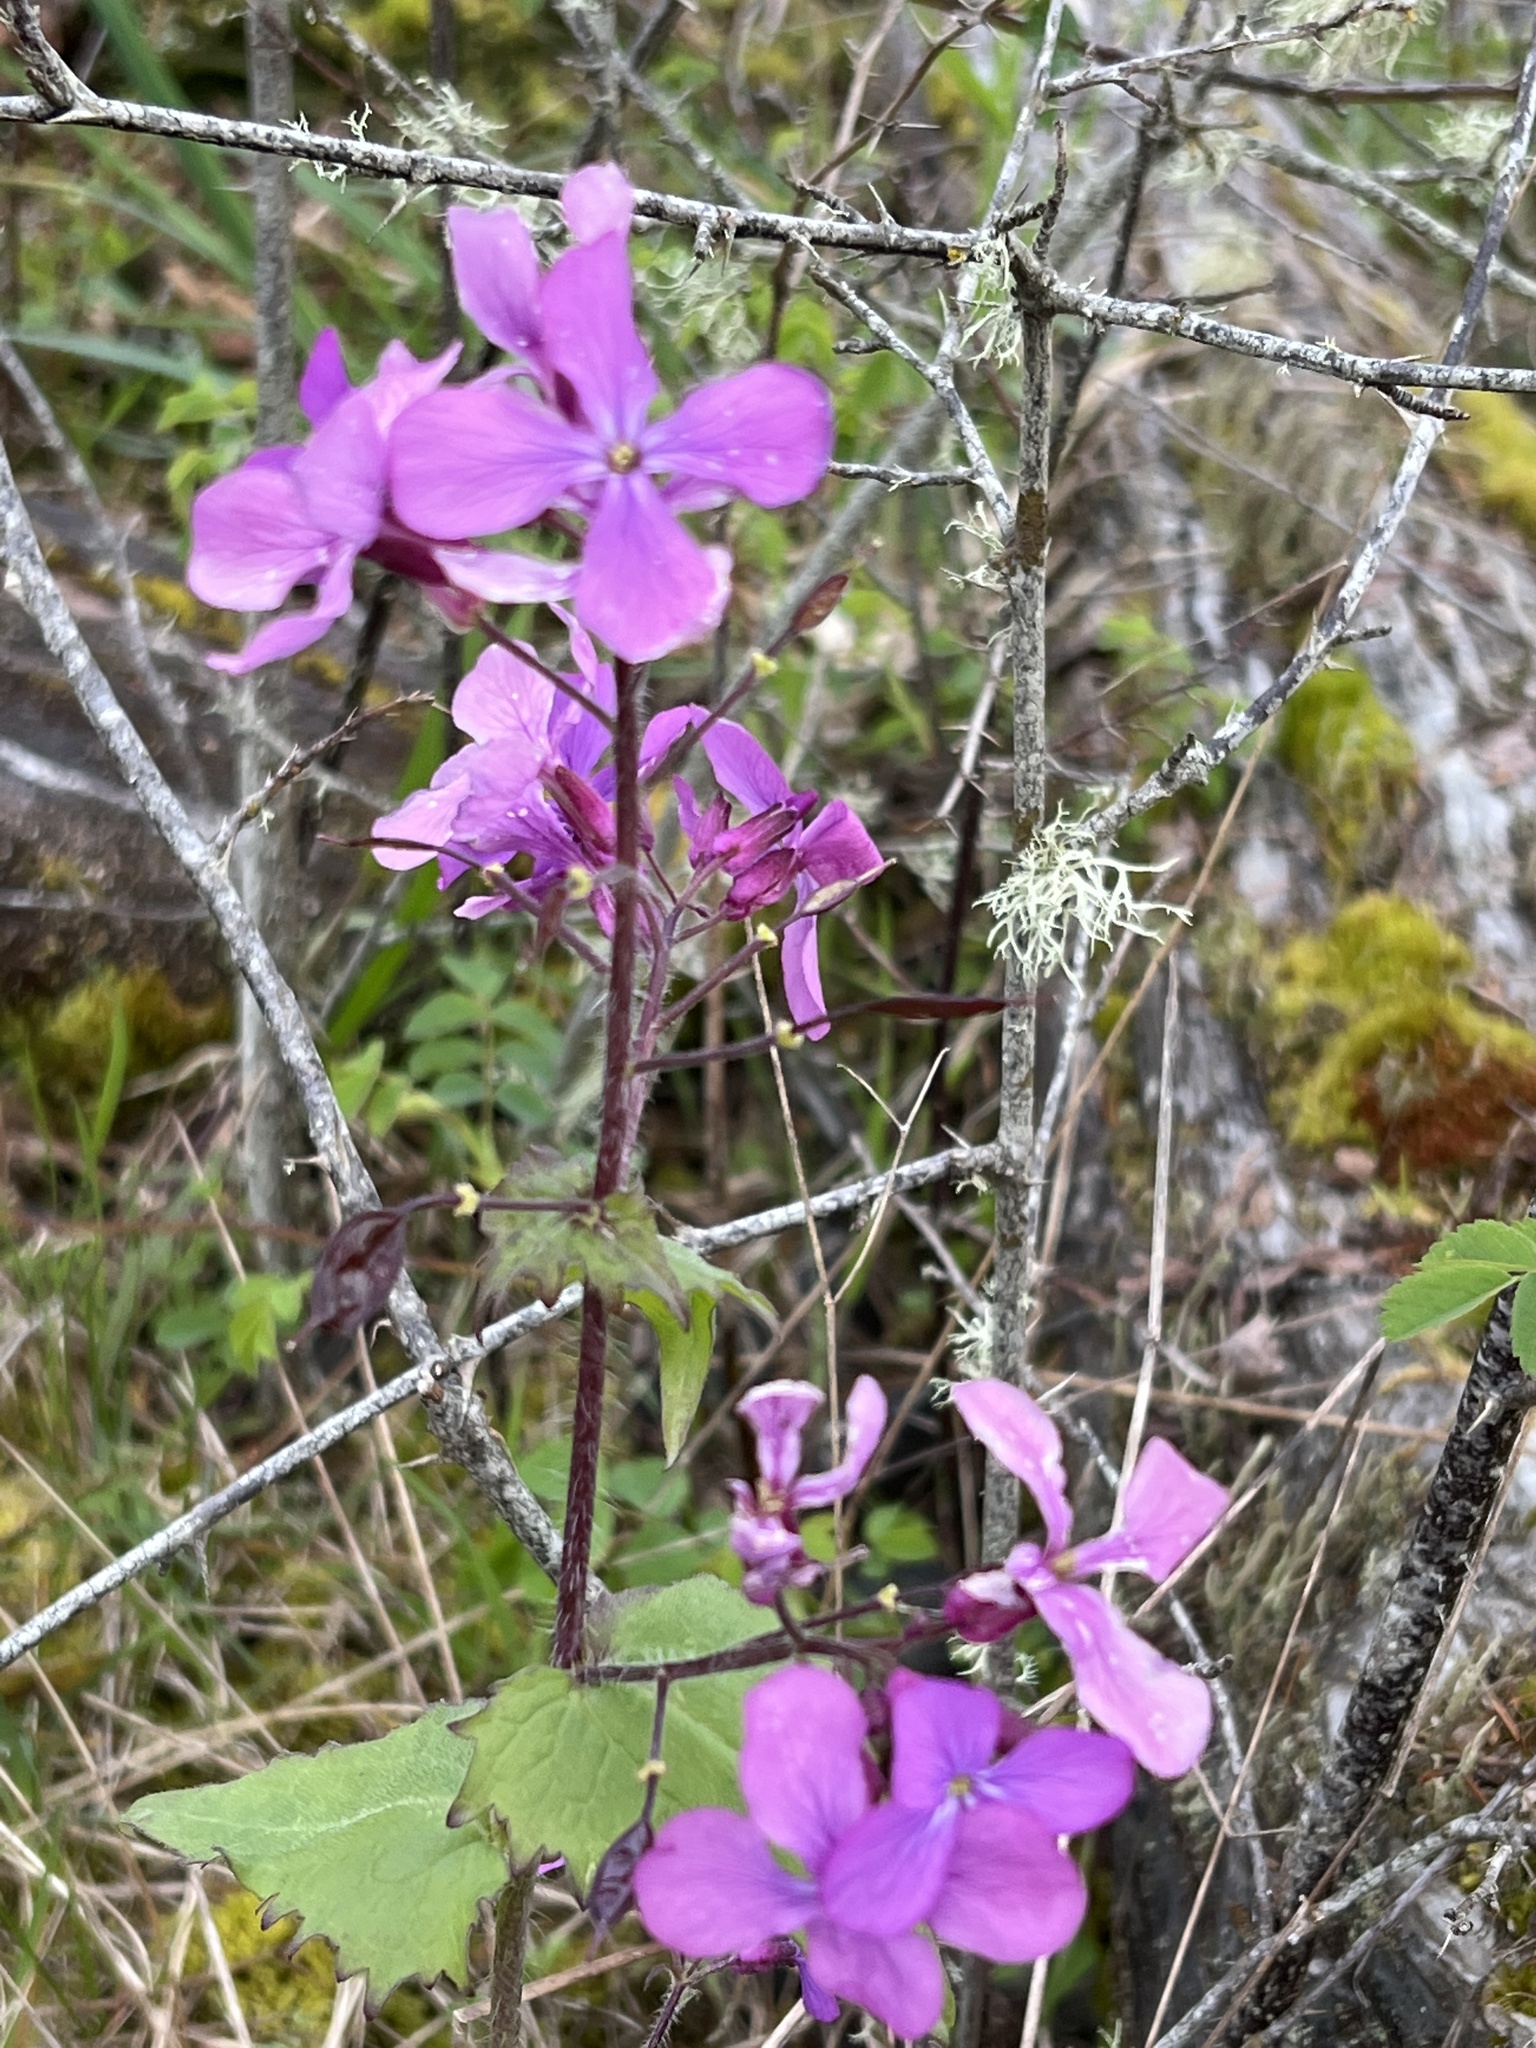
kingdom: Plantae
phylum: Tracheophyta
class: Magnoliopsida
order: Brassicales
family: Brassicaceae
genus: Lunaria
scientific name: Lunaria annua
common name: Honesty
